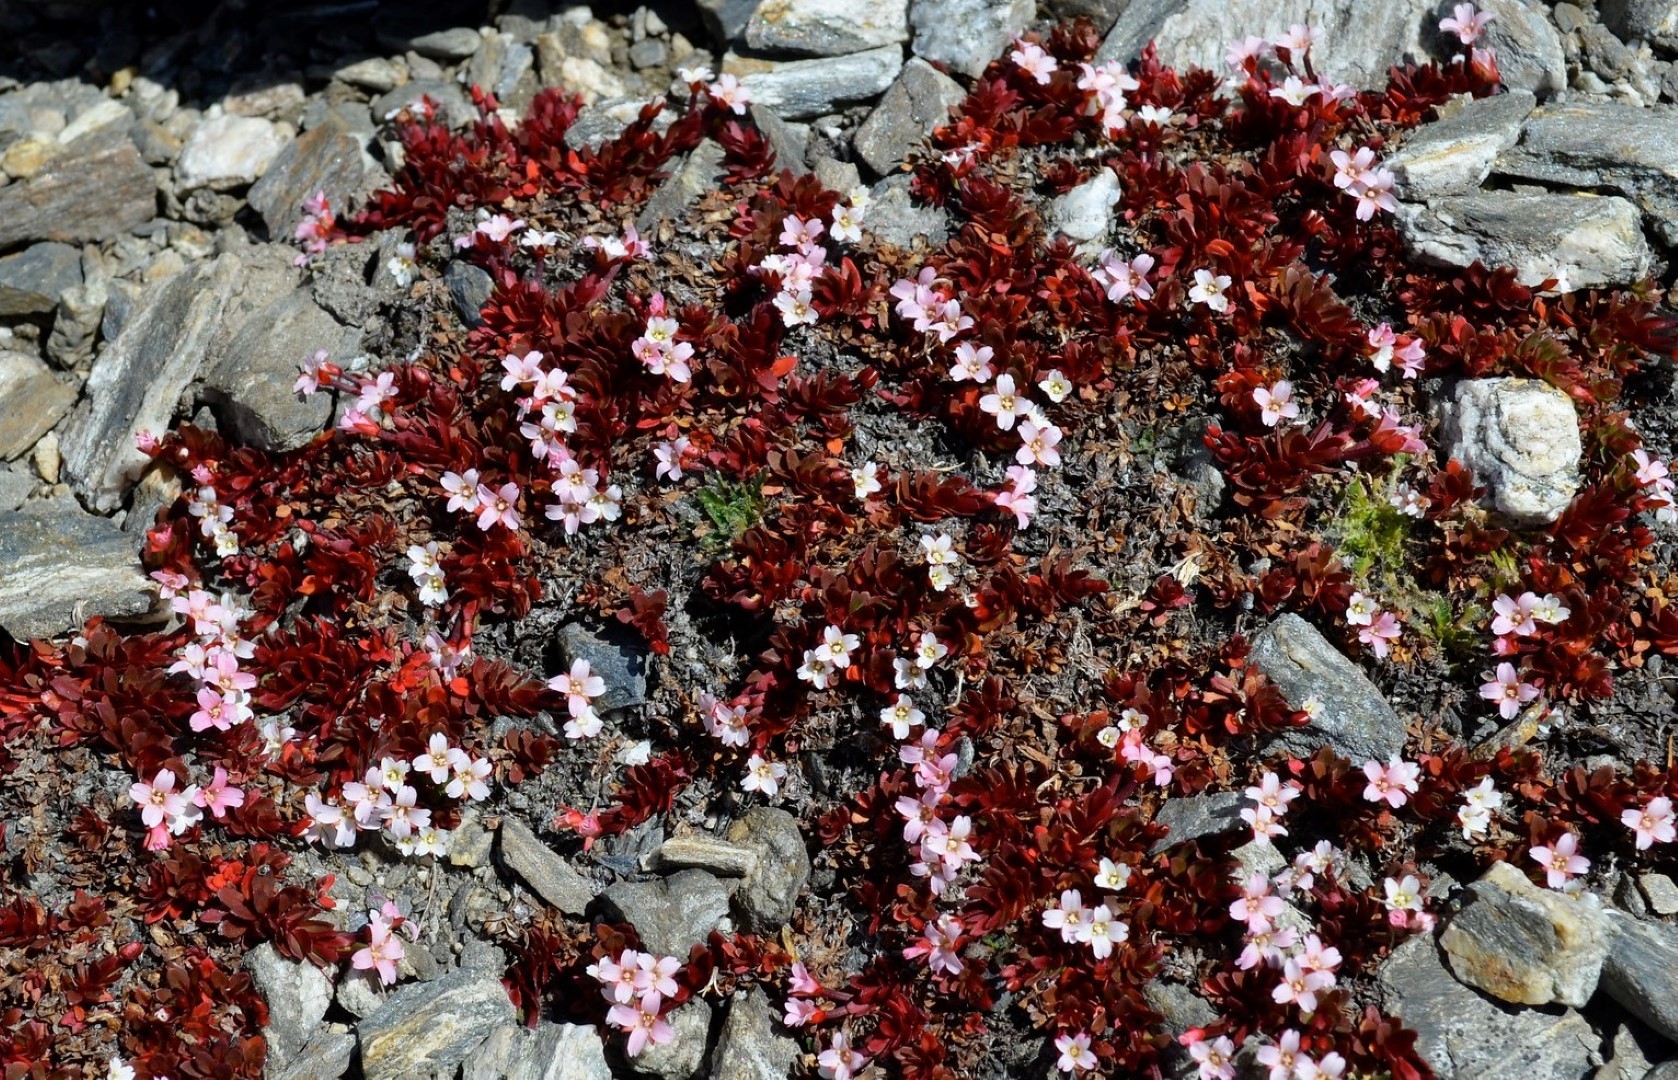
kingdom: Plantae
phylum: Tracheophyta
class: Magnoliopsida
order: Myrtales
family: Onagraceae
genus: Epilobium
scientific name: Epilobium tasmanicum
